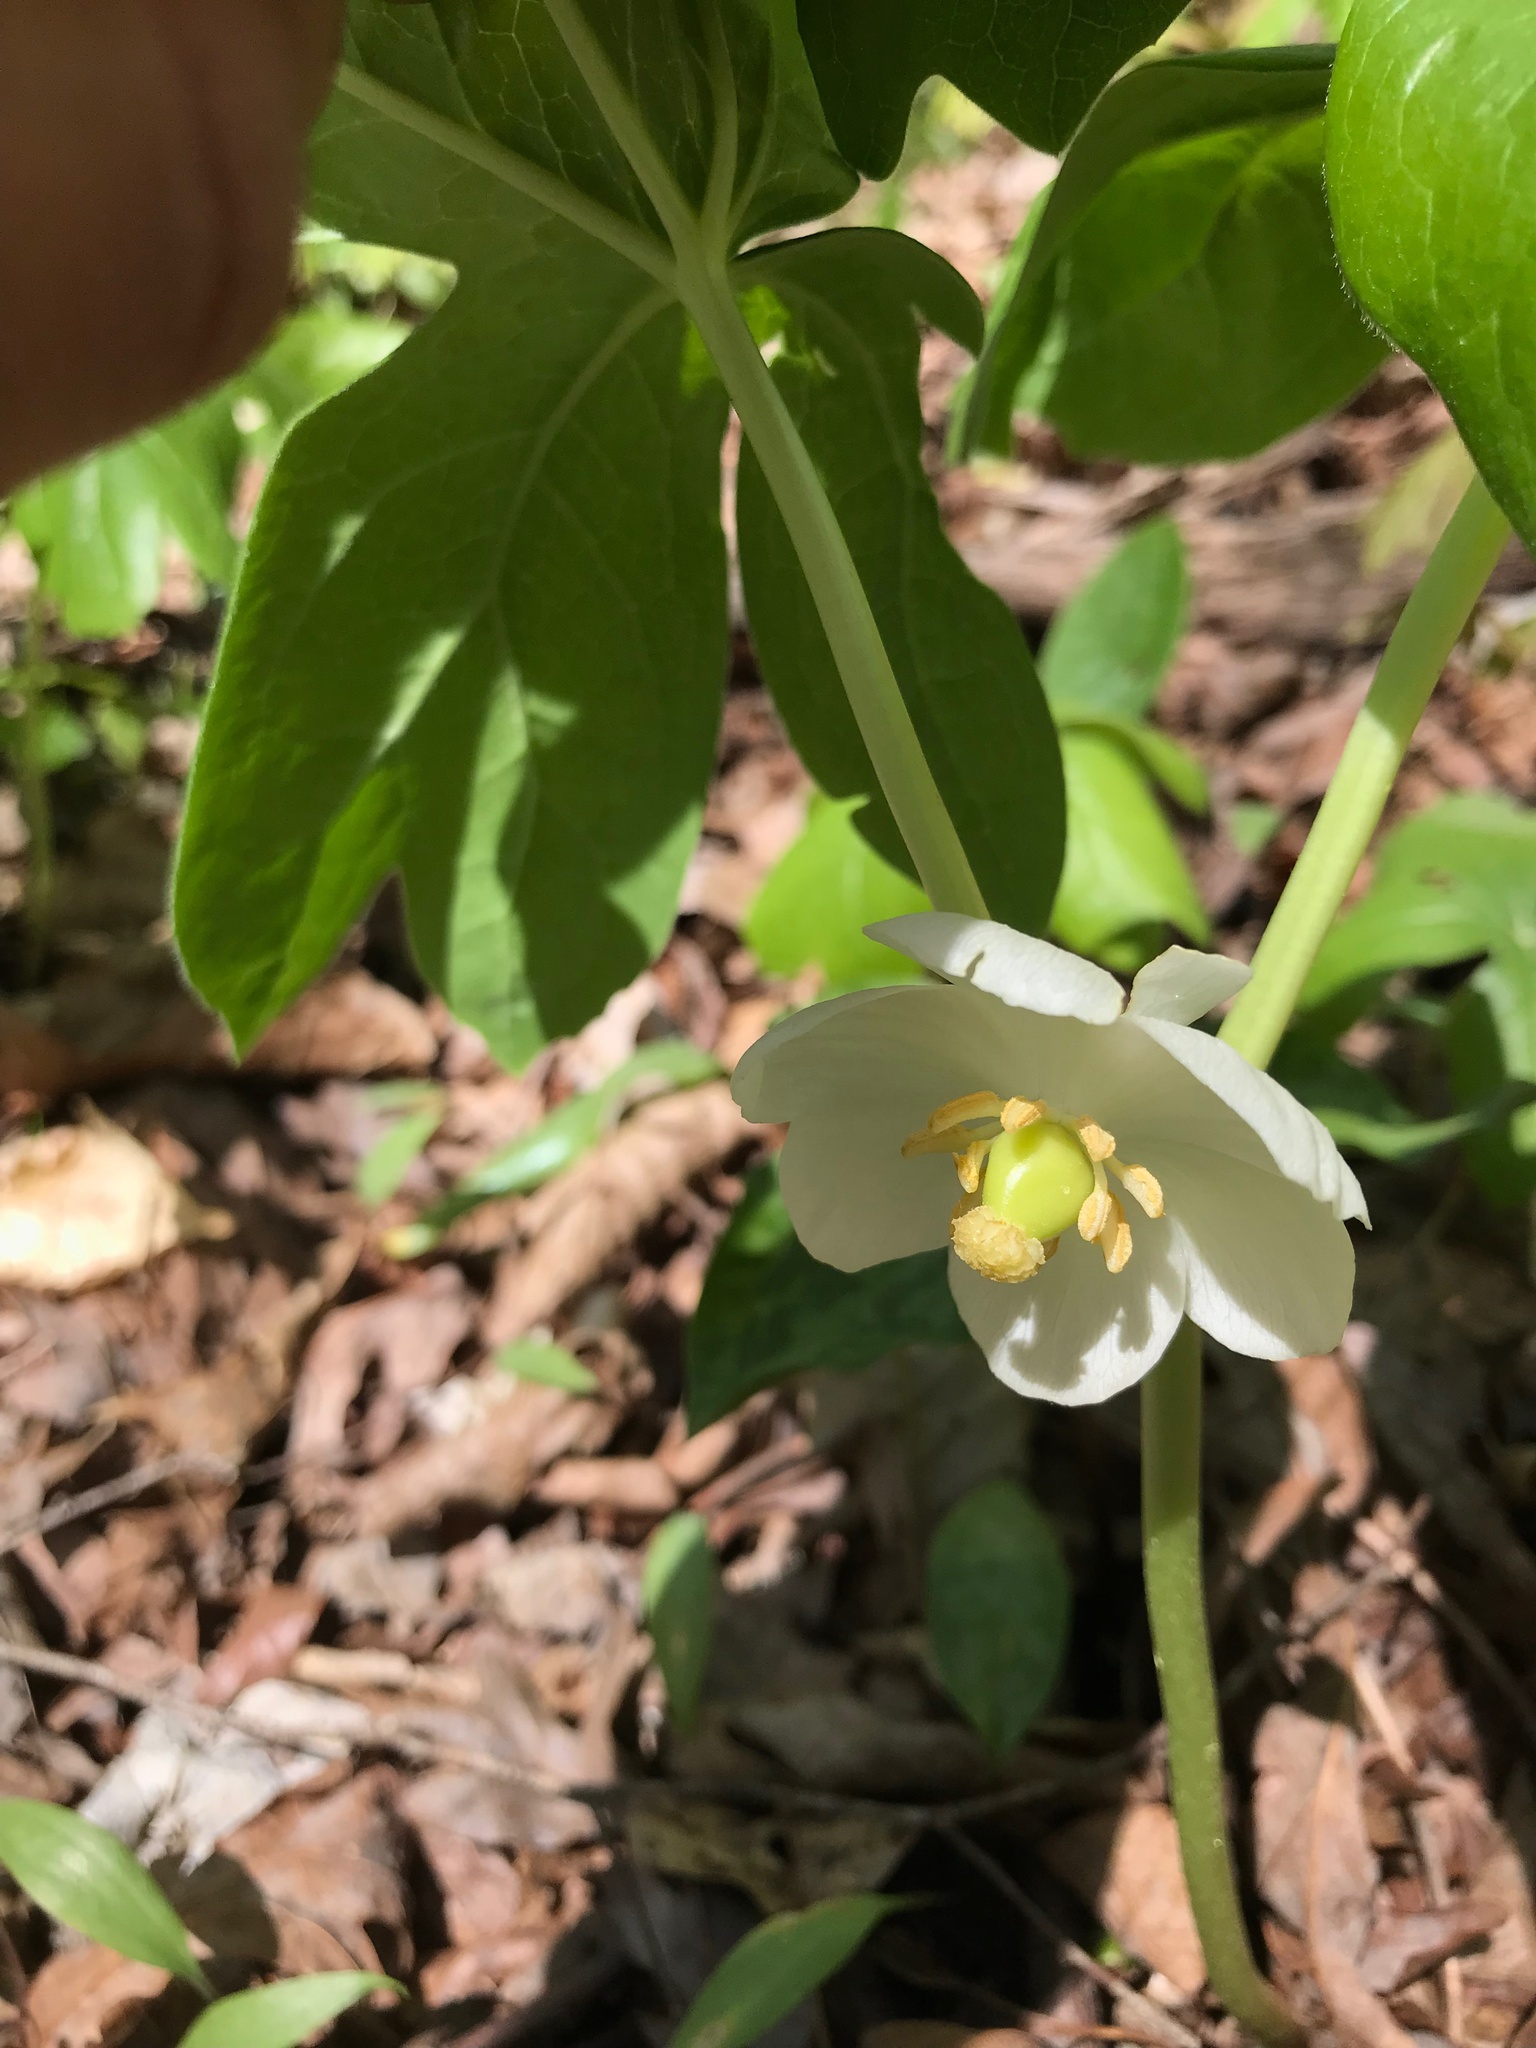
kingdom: Plantae
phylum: Tracheophyta
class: Magnoliopsida
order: Ranunculales
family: Berberidaceae
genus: Podophyllum
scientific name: Podophyllum peltatum
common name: Wild mandrake
